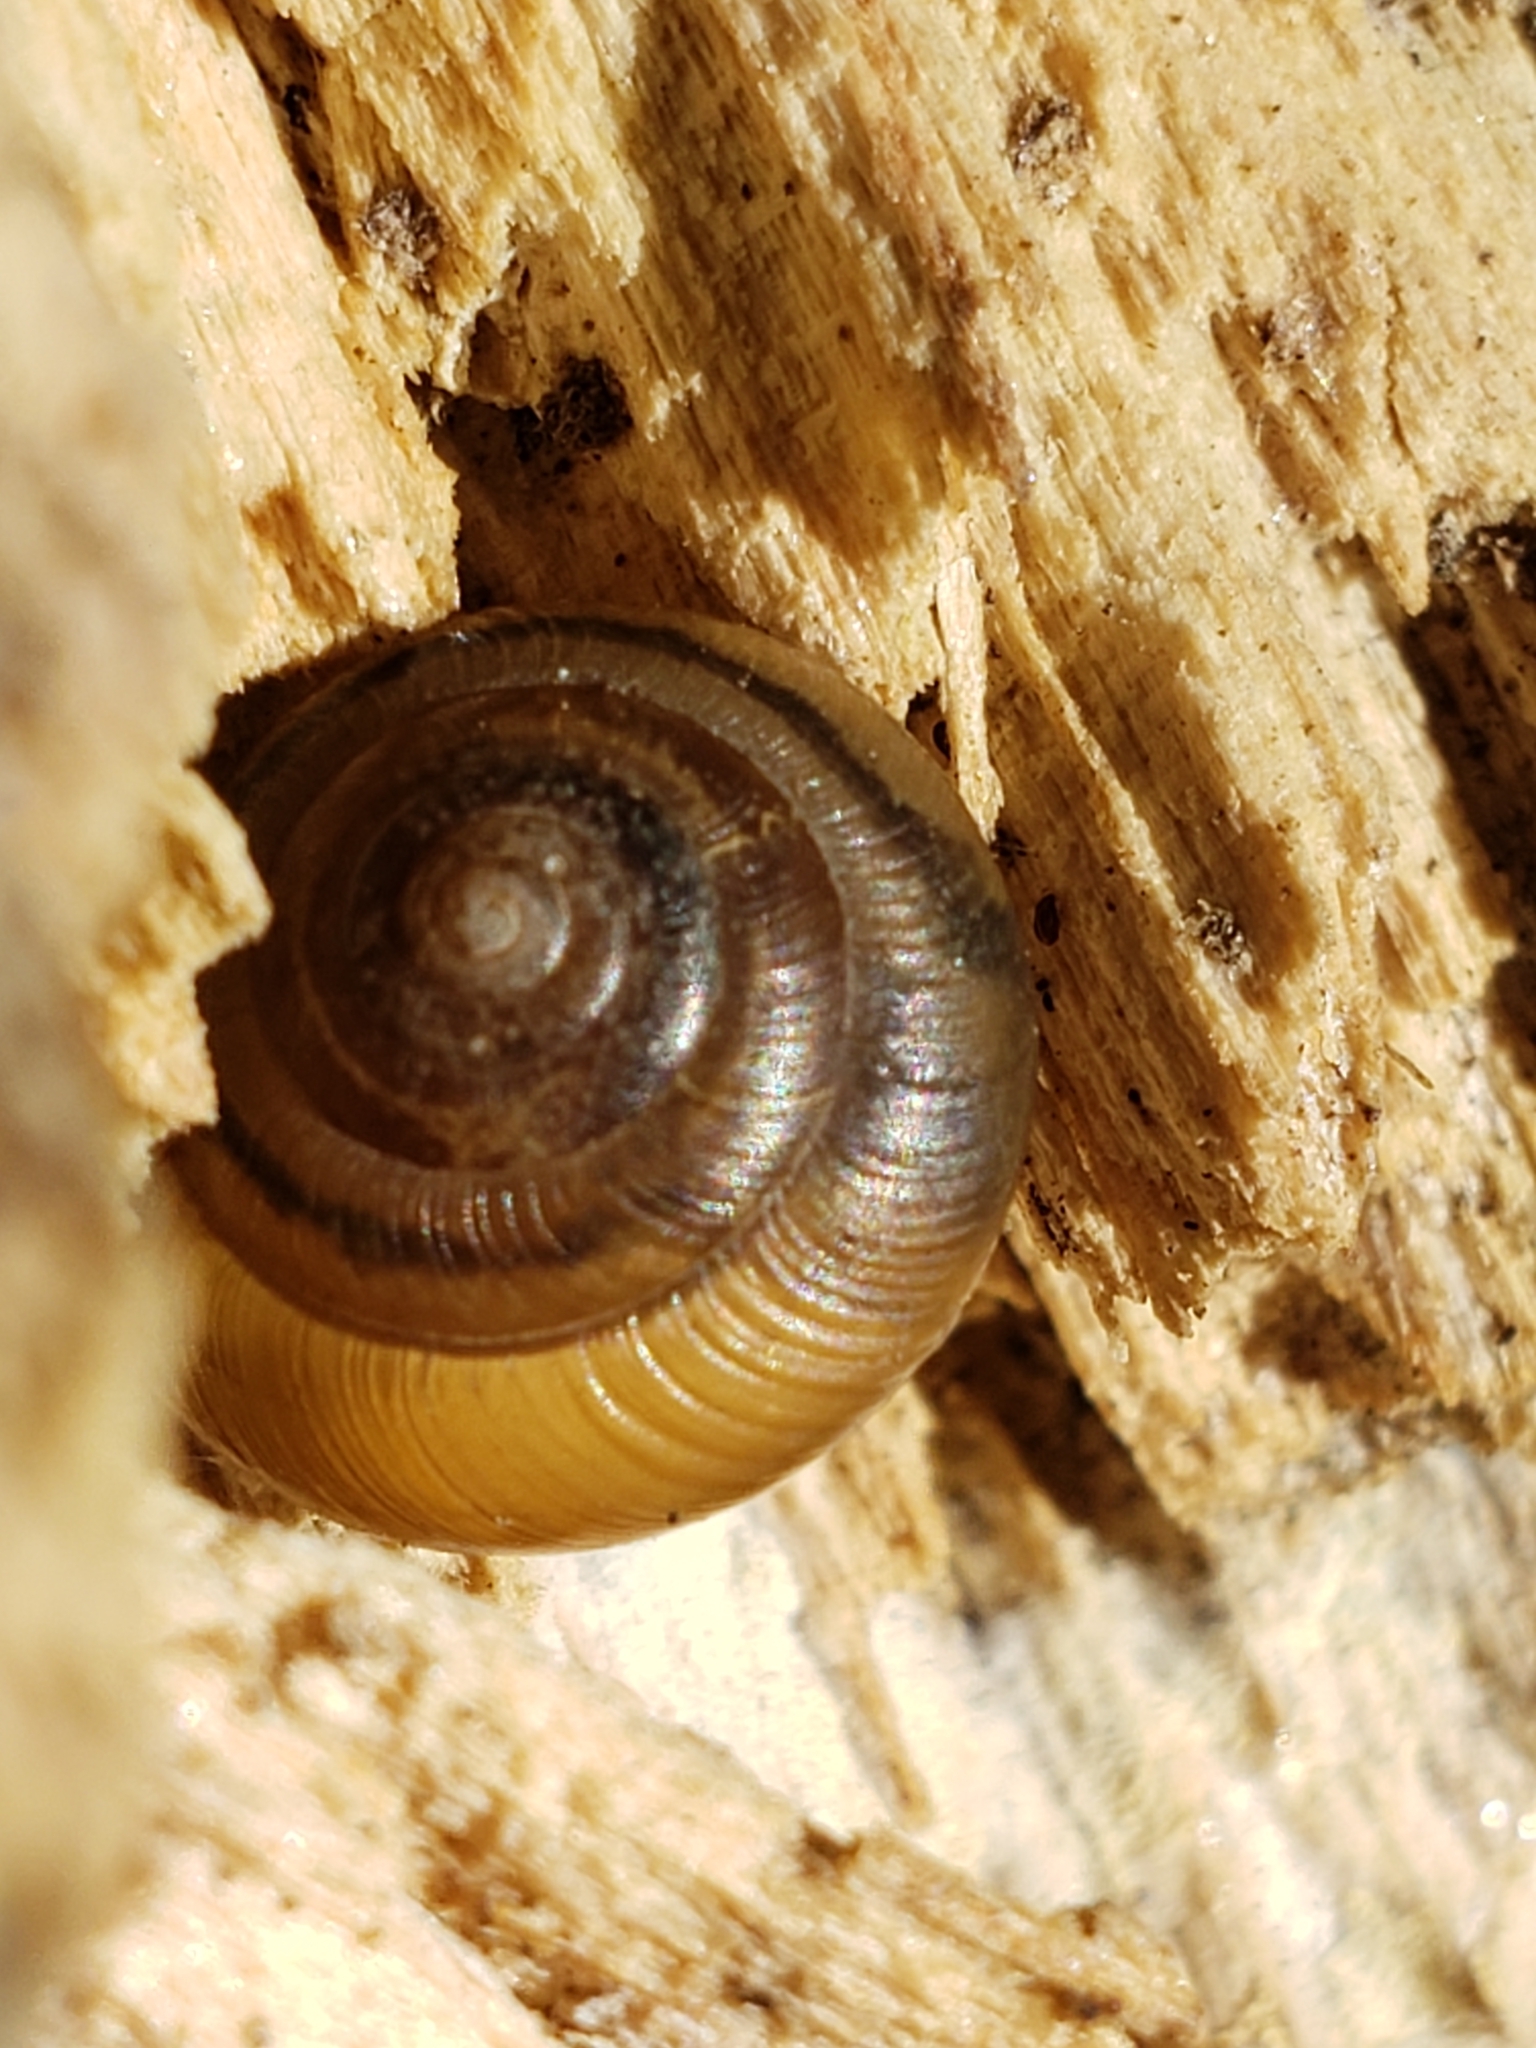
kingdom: Animalia
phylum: Mollusca
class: Gastropoda
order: Stylommatophora
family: Gastrodontidae
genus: Ventridens
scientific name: Ventridens ligera
